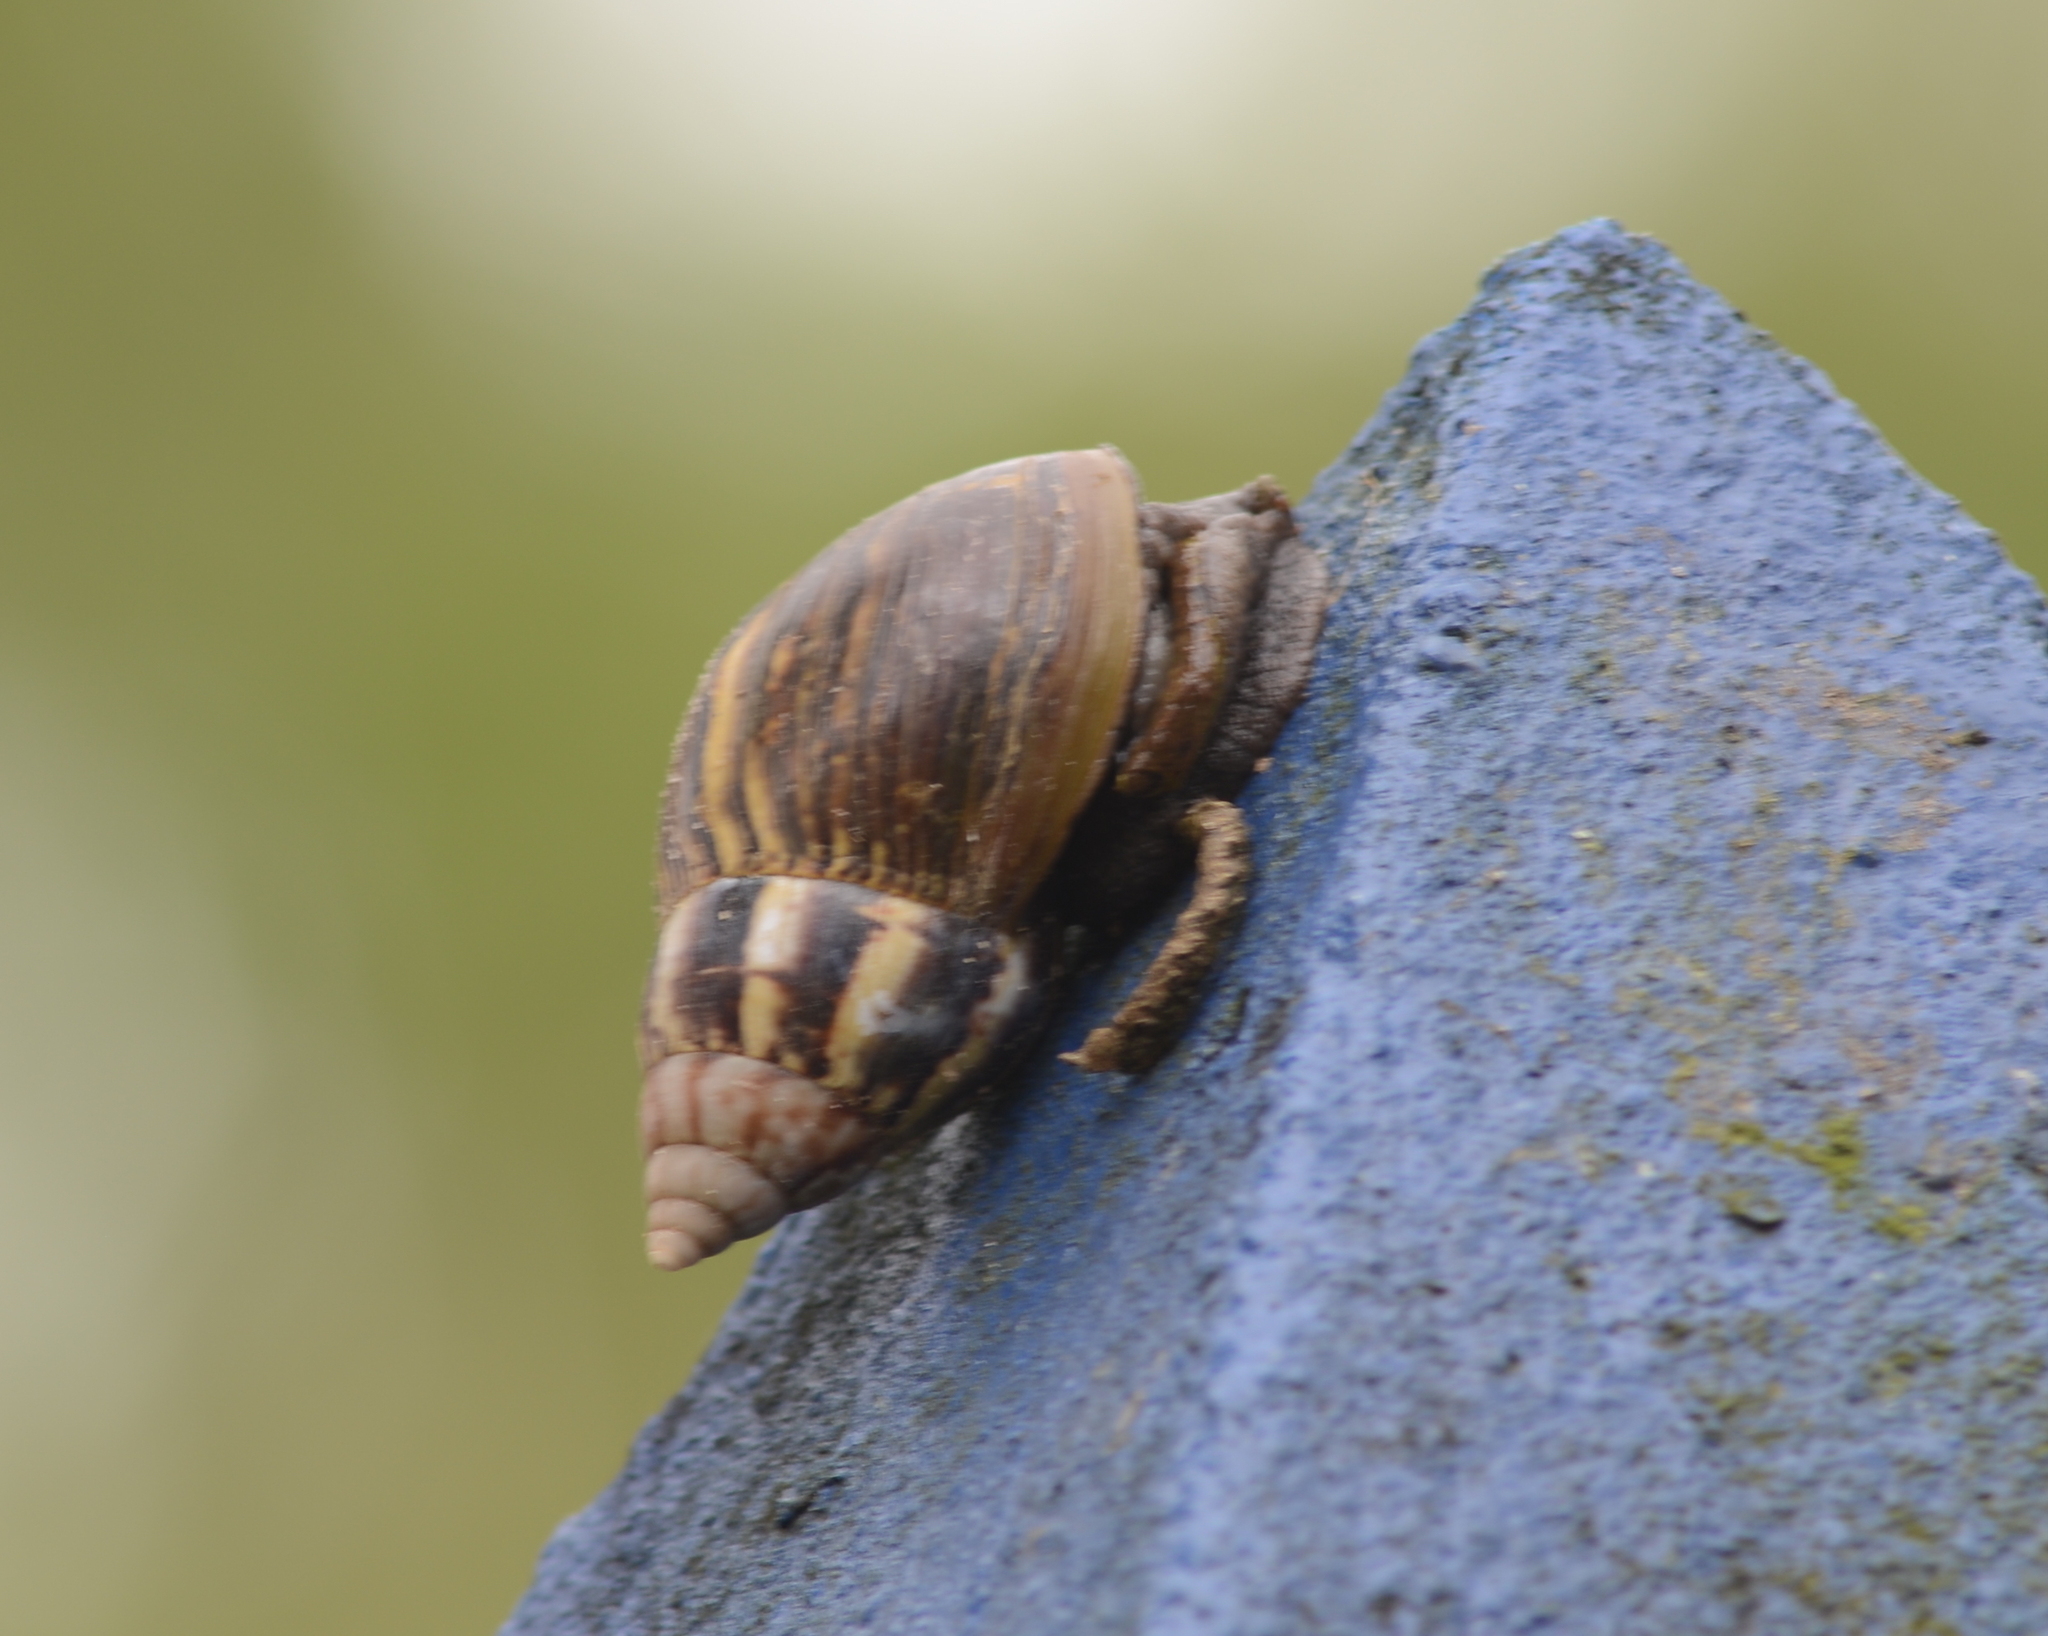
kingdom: Animalia
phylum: Mollusca
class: Gastropoda
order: Stylommatophora
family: Achatinidae
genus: Lissachatina
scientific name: Lissachatina fulica
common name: Giant african snail
